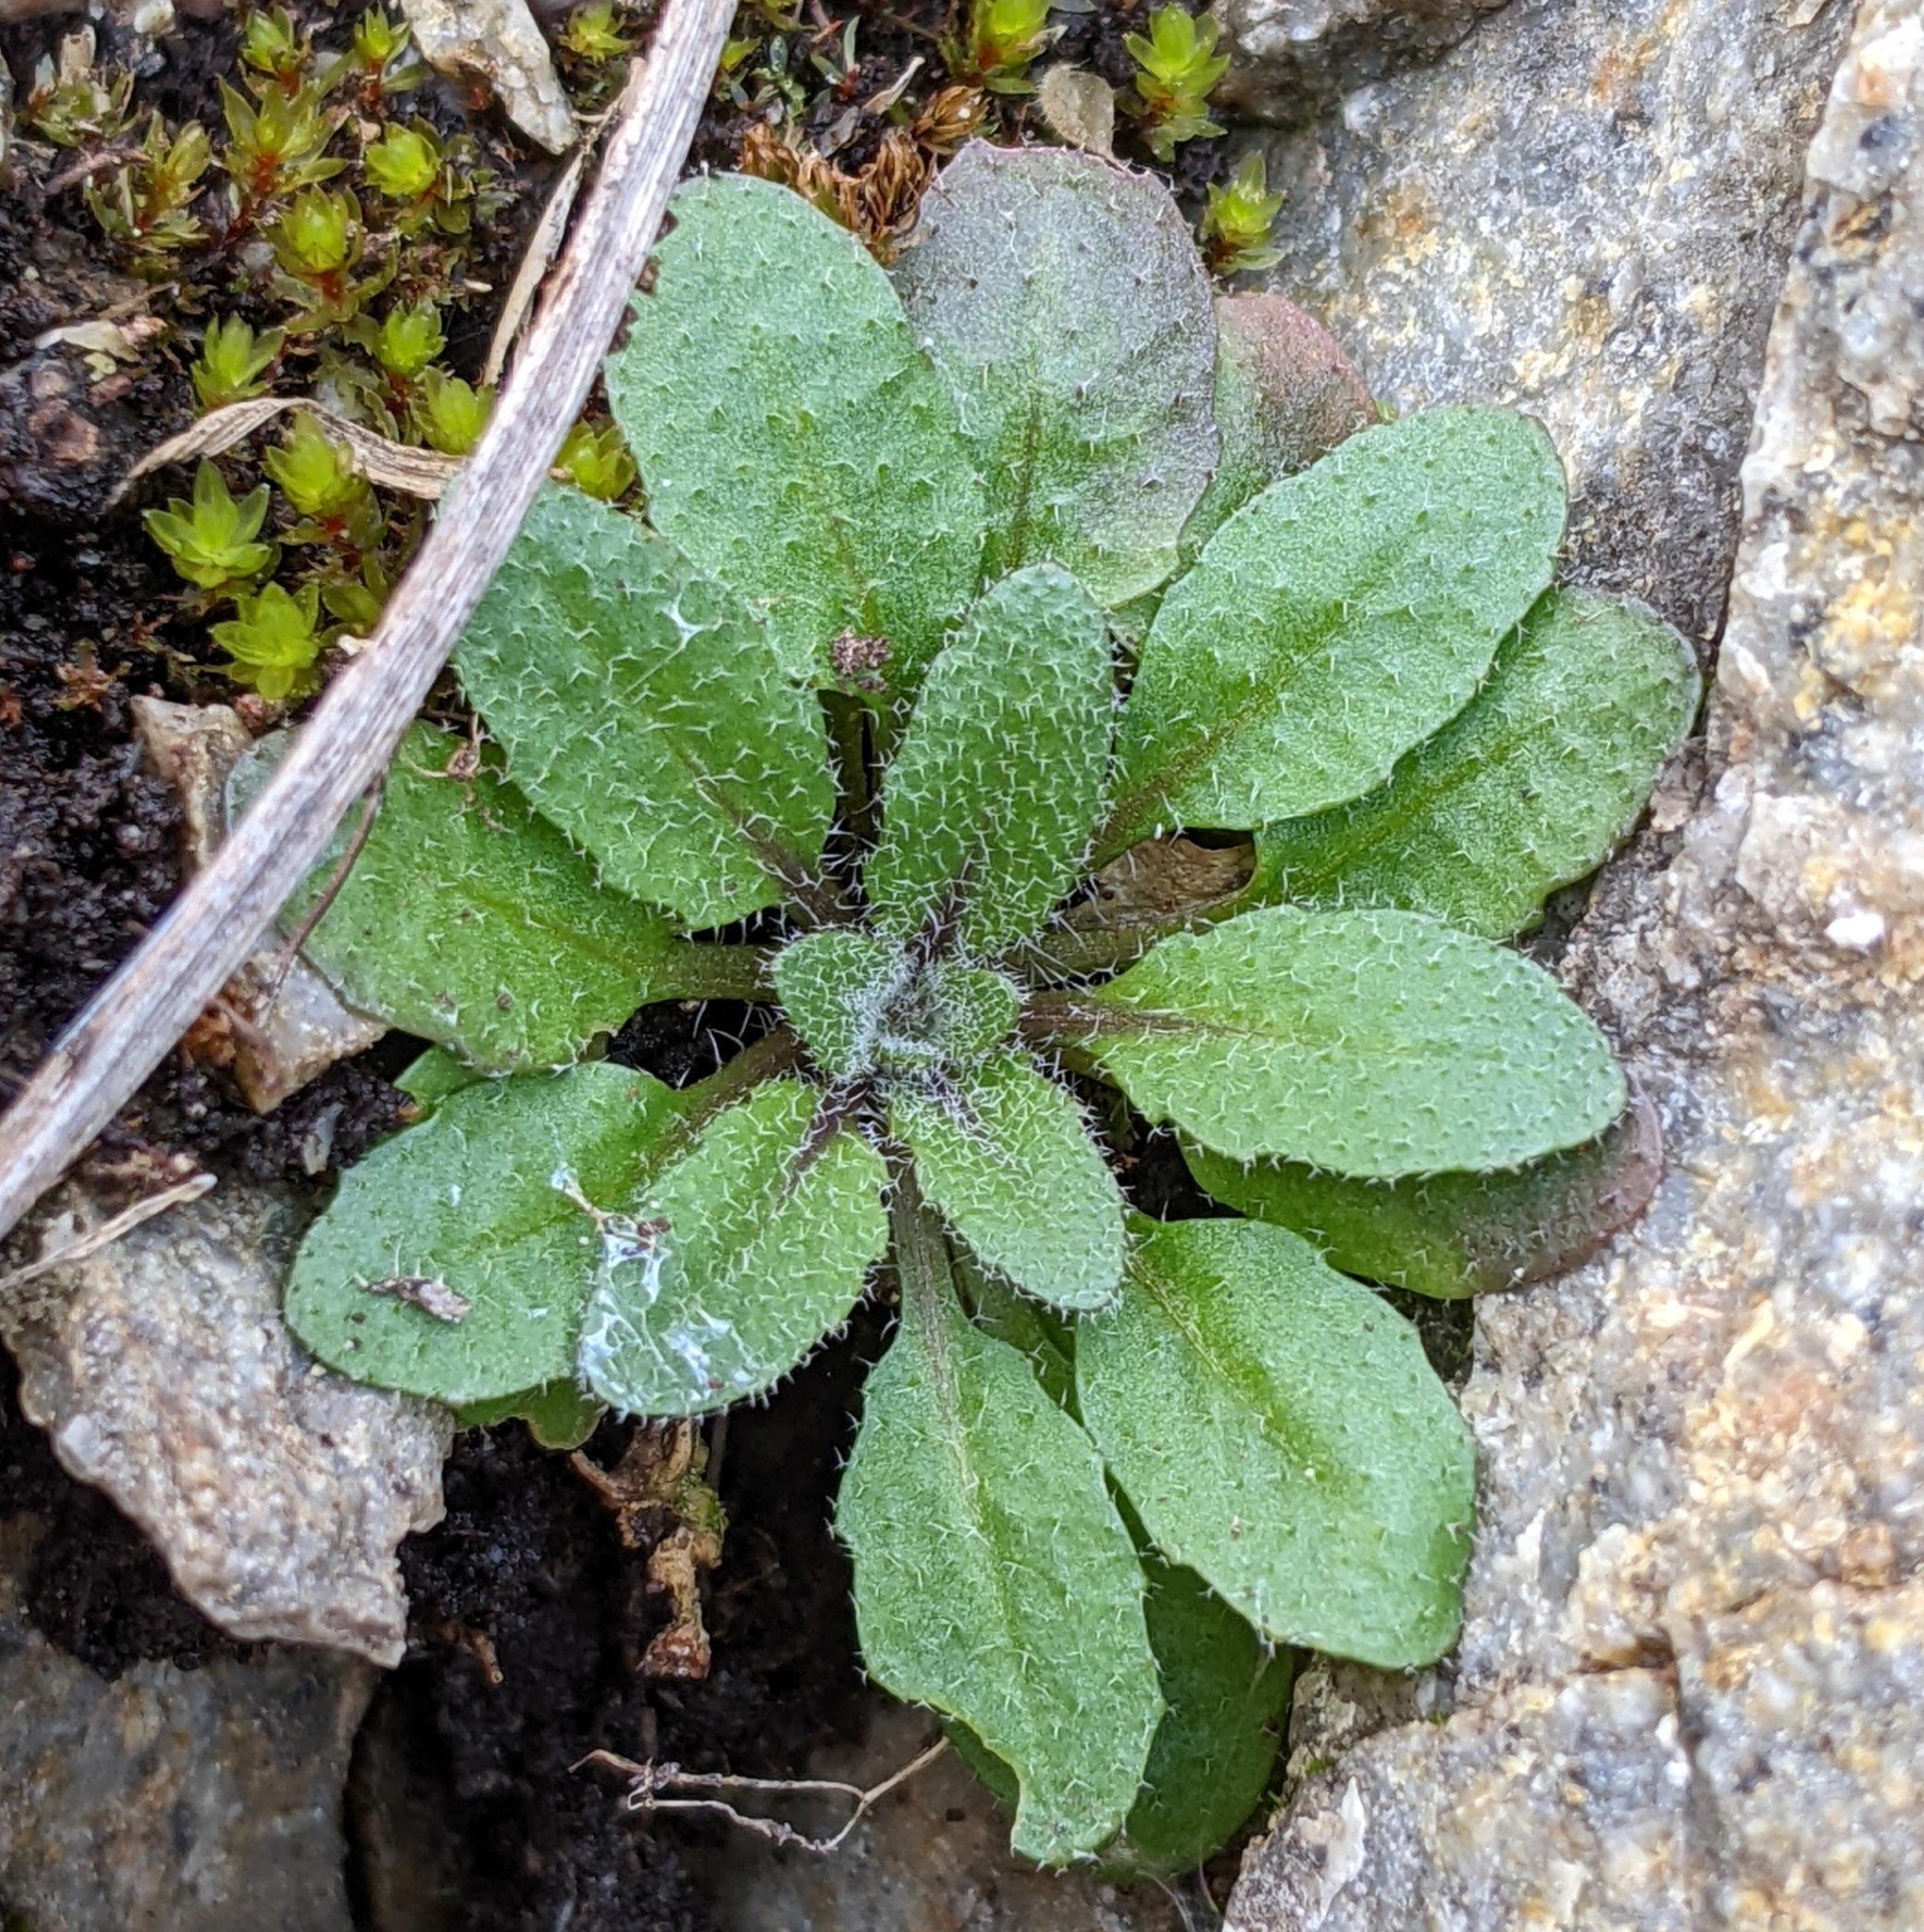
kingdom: Plantae
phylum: Tracheophyta
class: Magnoliopsida
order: Brassicales
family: Brassicaceae
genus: Arabidopsis
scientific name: Arabidopsis thaliana
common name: Thale cress
